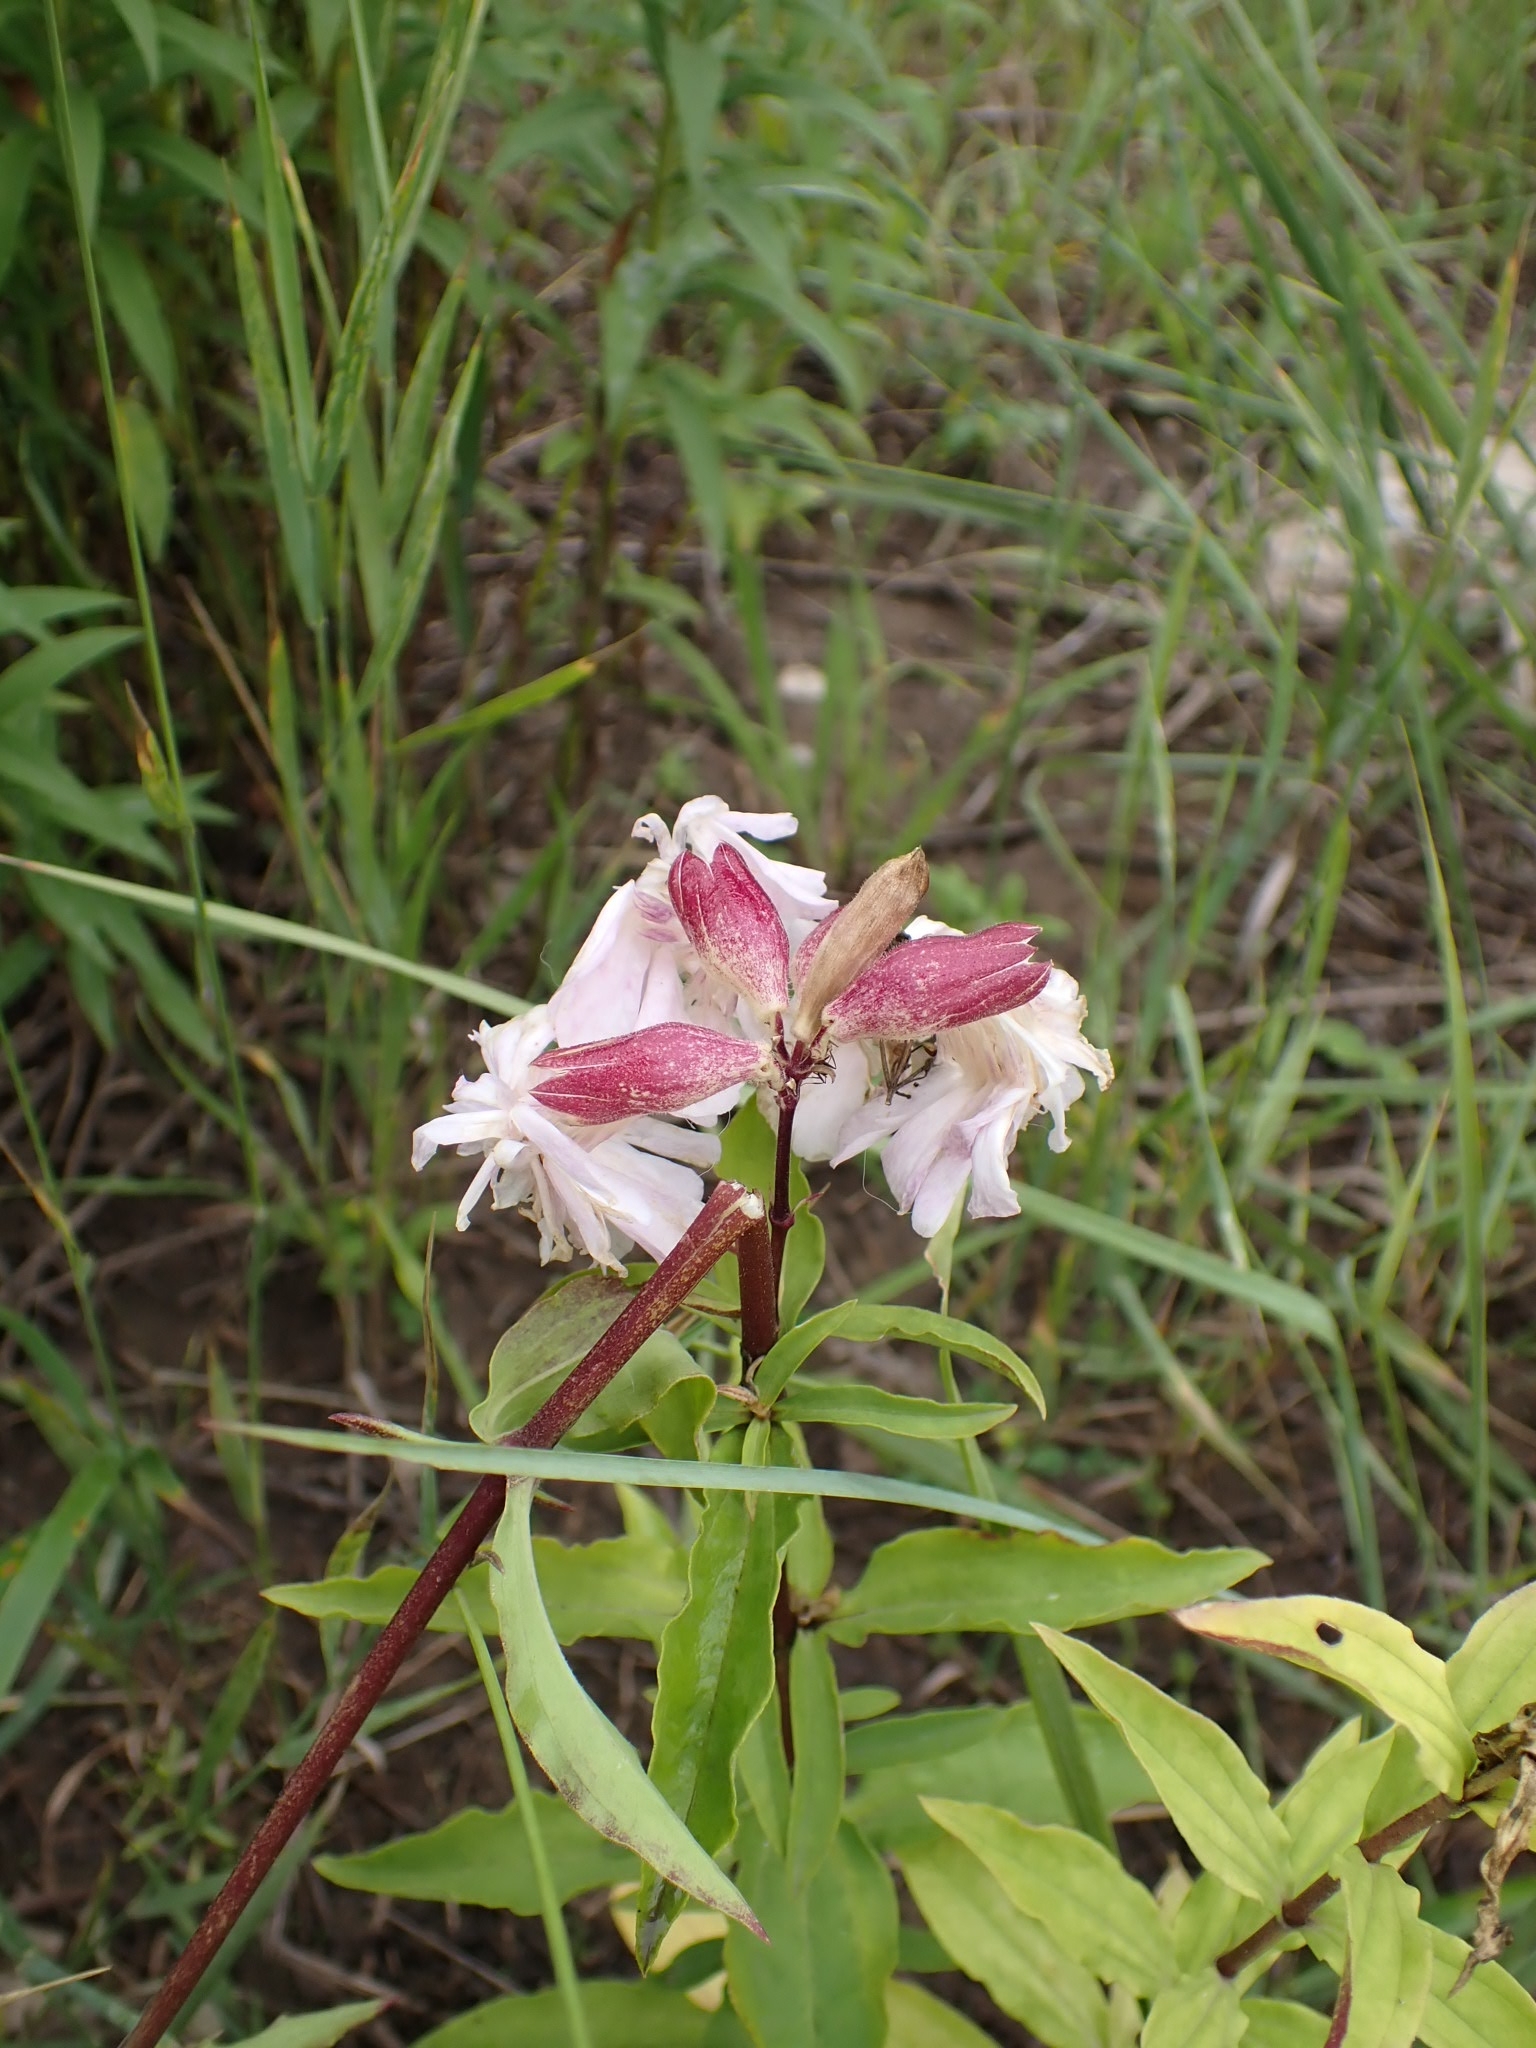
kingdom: Plantae
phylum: Tracheophyta
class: Magnoliopsida
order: Caryophyllales
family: Caryophyllaceae
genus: Saponaria
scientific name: Saponaria officinalis
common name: Soapwort
